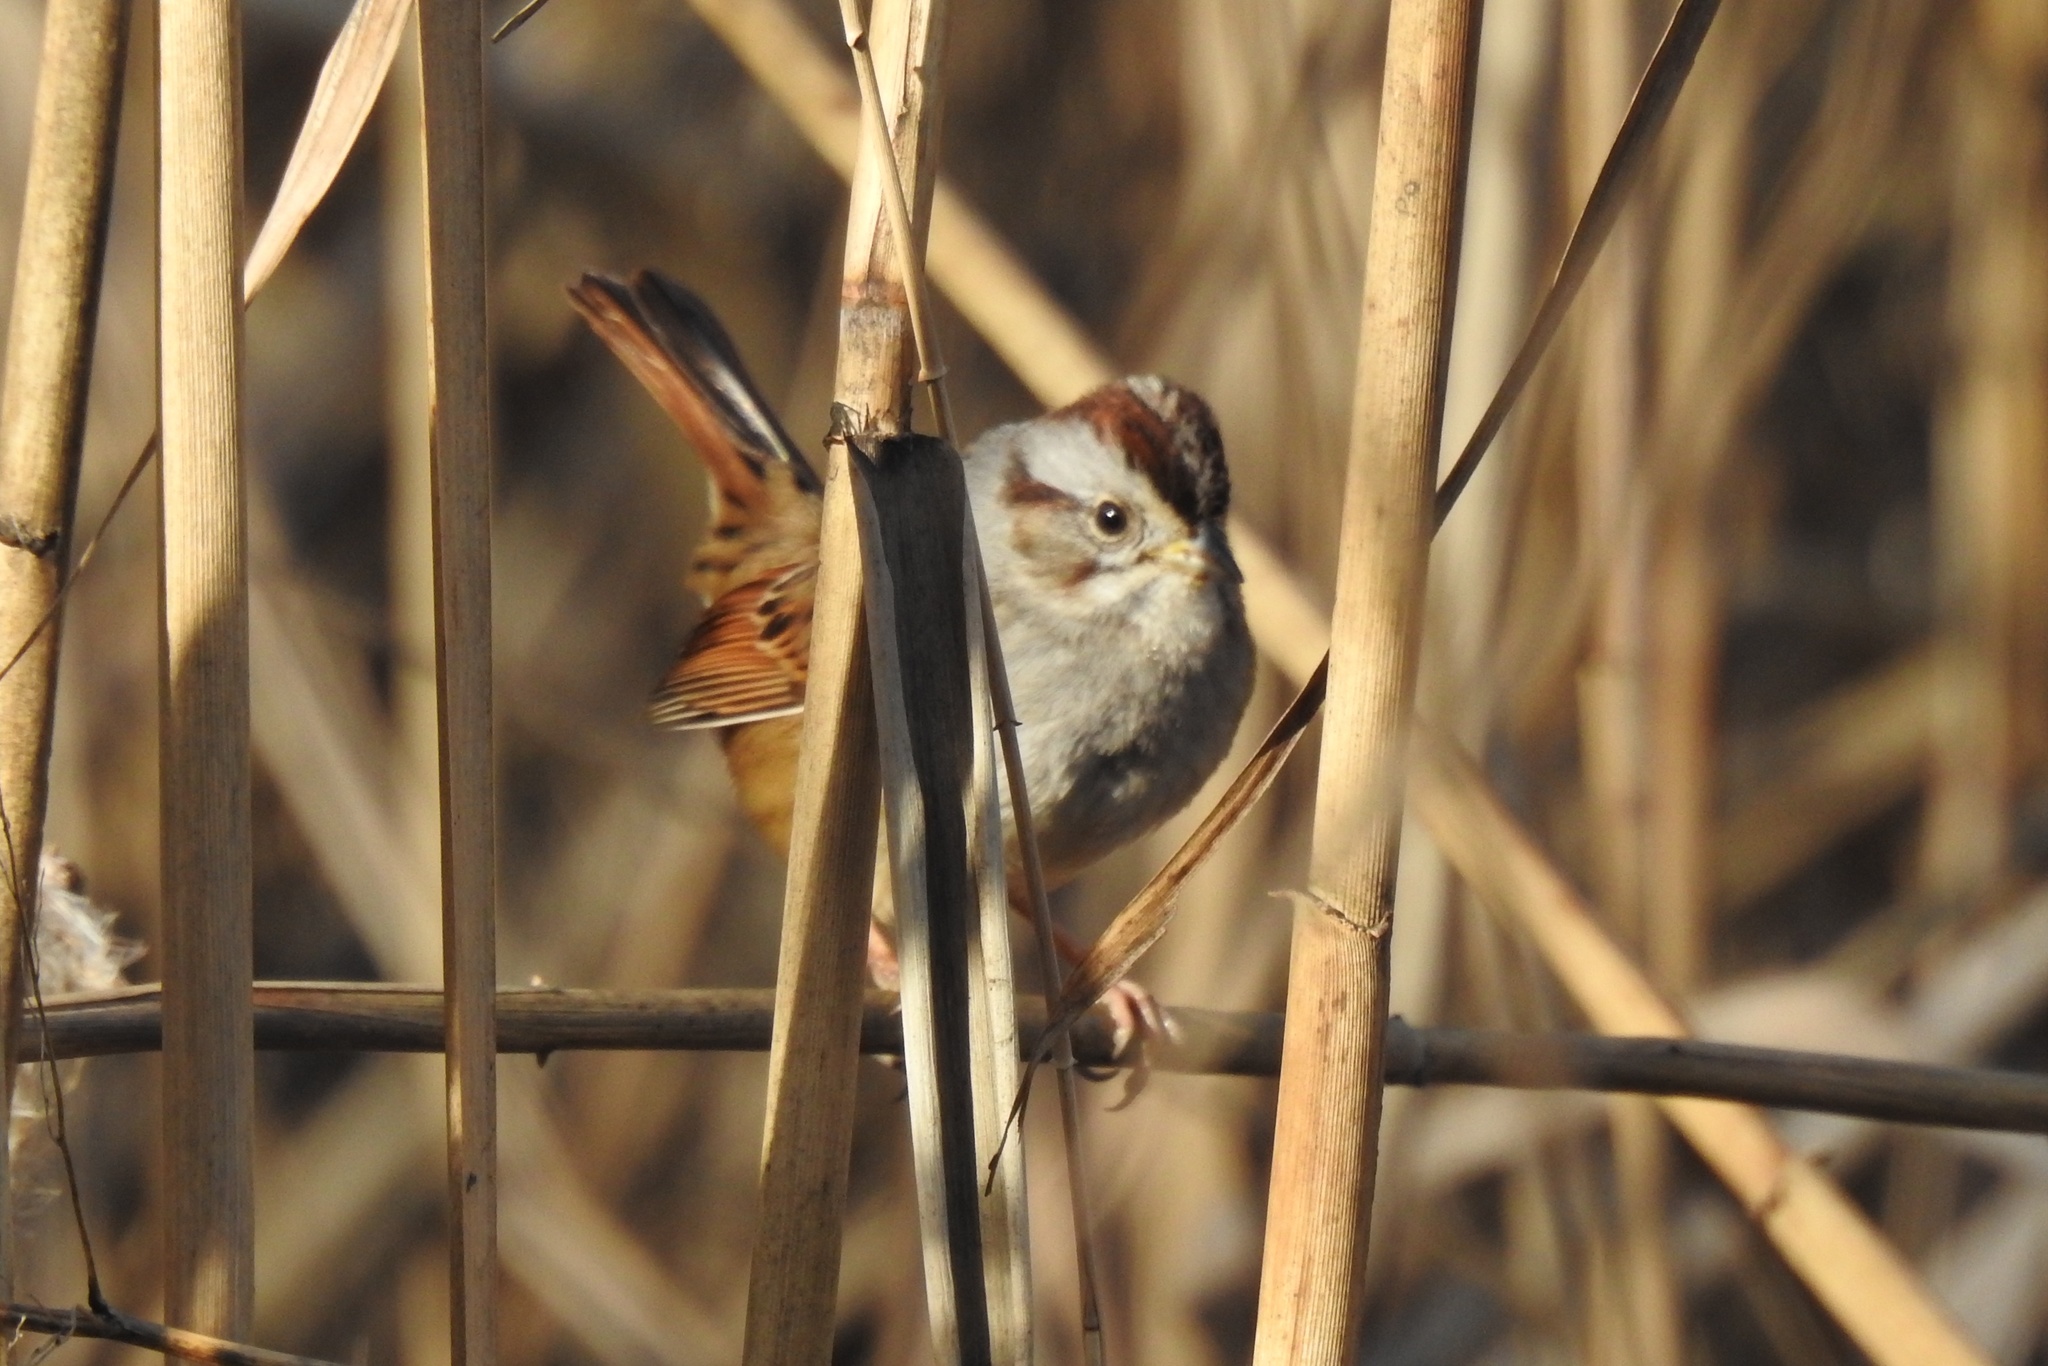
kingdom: Animalia
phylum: Chordata
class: Aves
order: Passeriformes
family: Passerellidae
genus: Melospiza
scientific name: Melospiza georgiana
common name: Swamp sparrow
